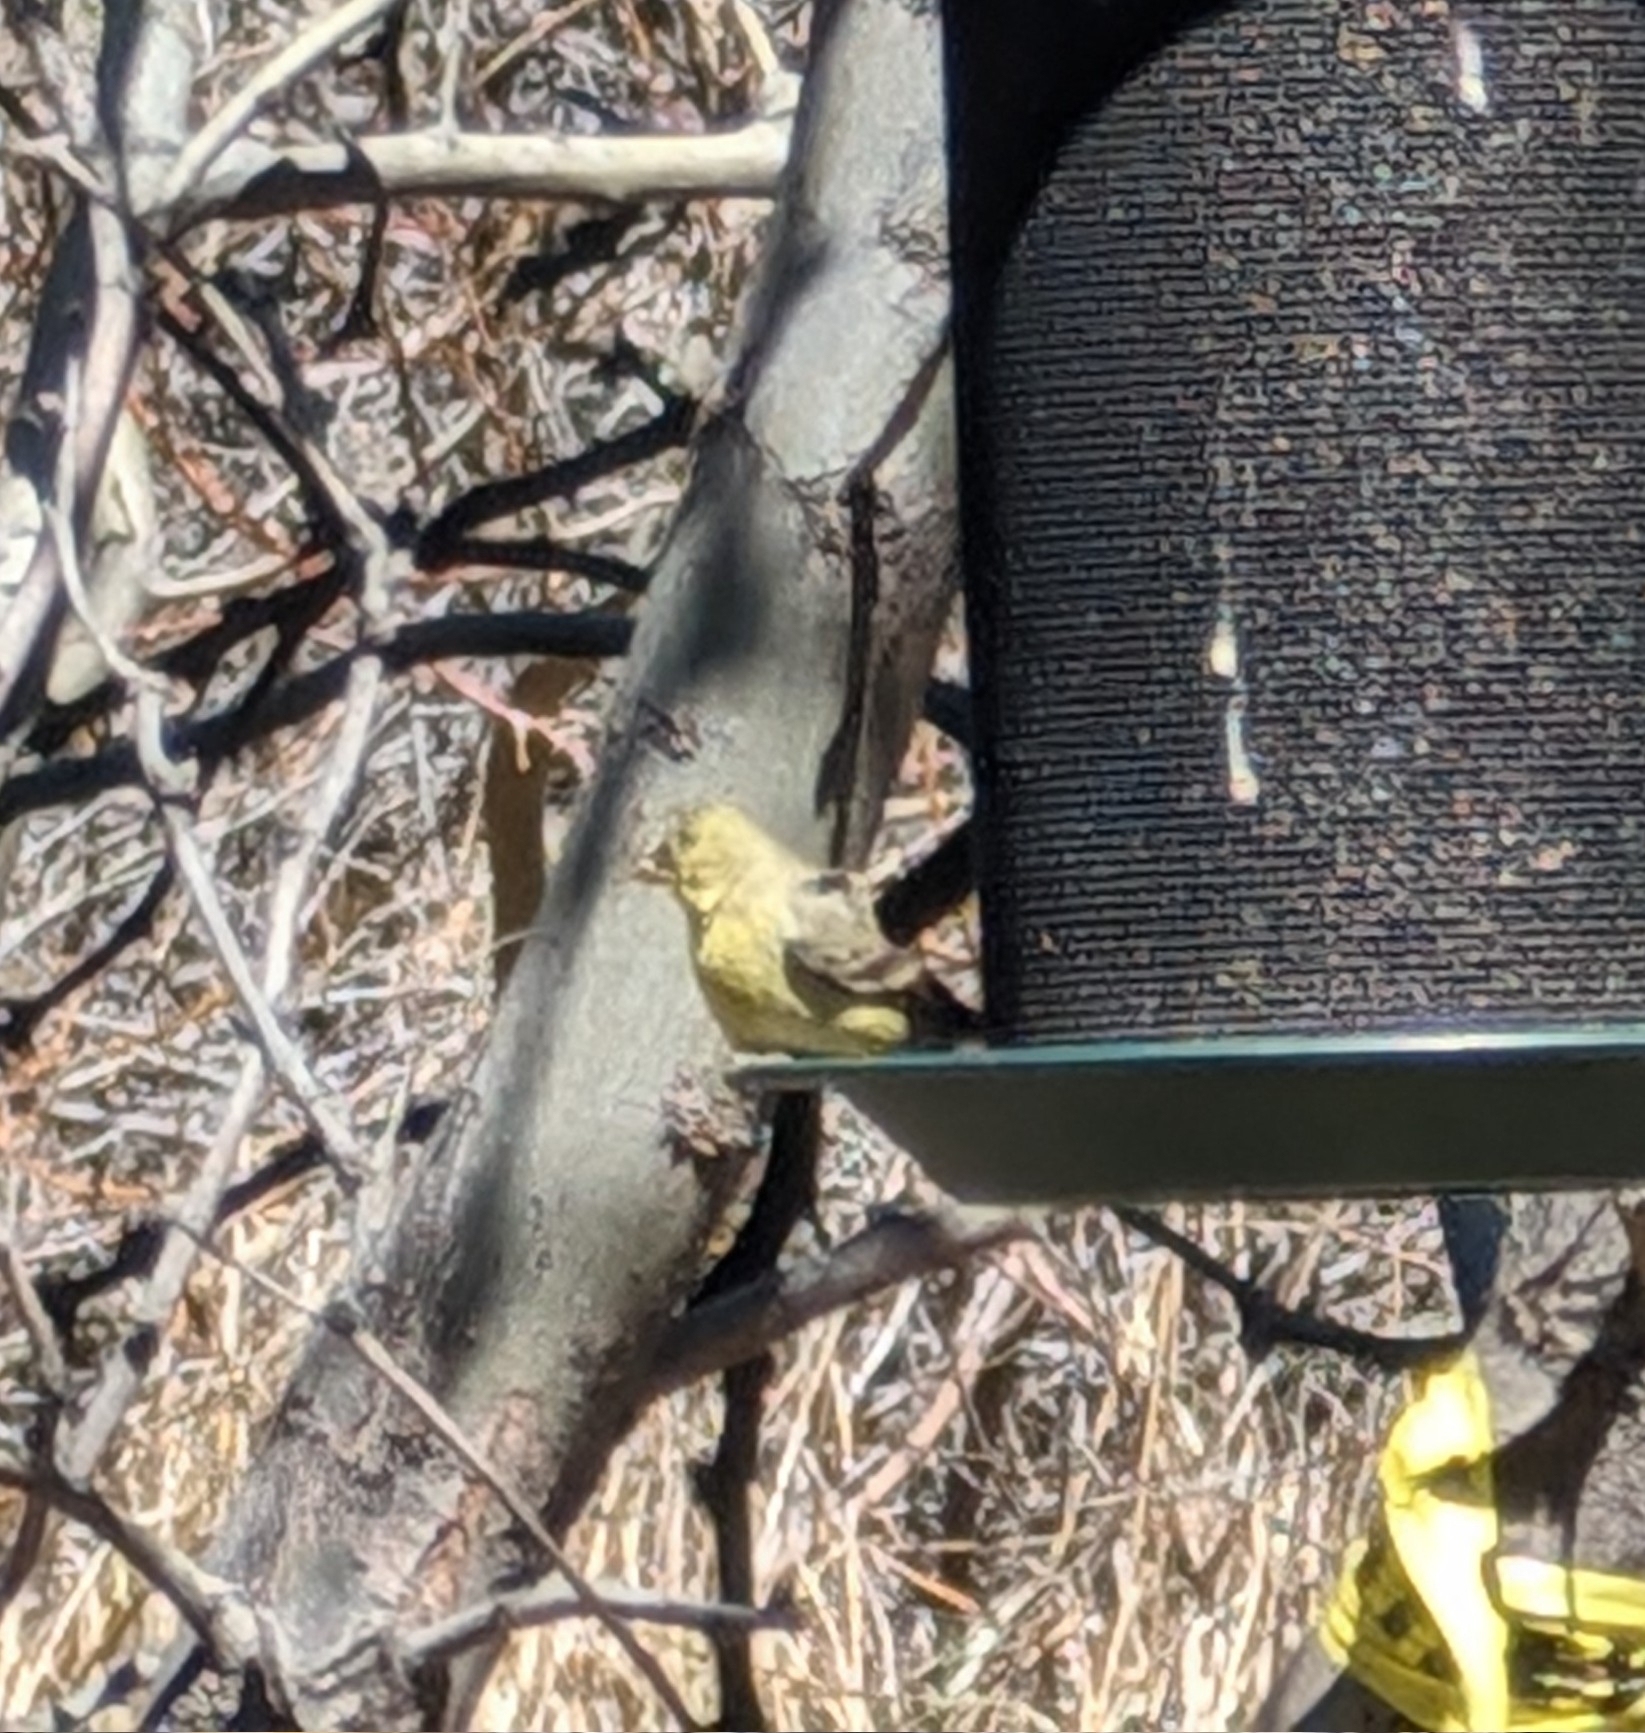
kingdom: Animalia
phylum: Chordata
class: Aves
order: Passeriformes
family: Fringillidae
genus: Spinus
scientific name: Spinus psaltria
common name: Lesser goldfinch
